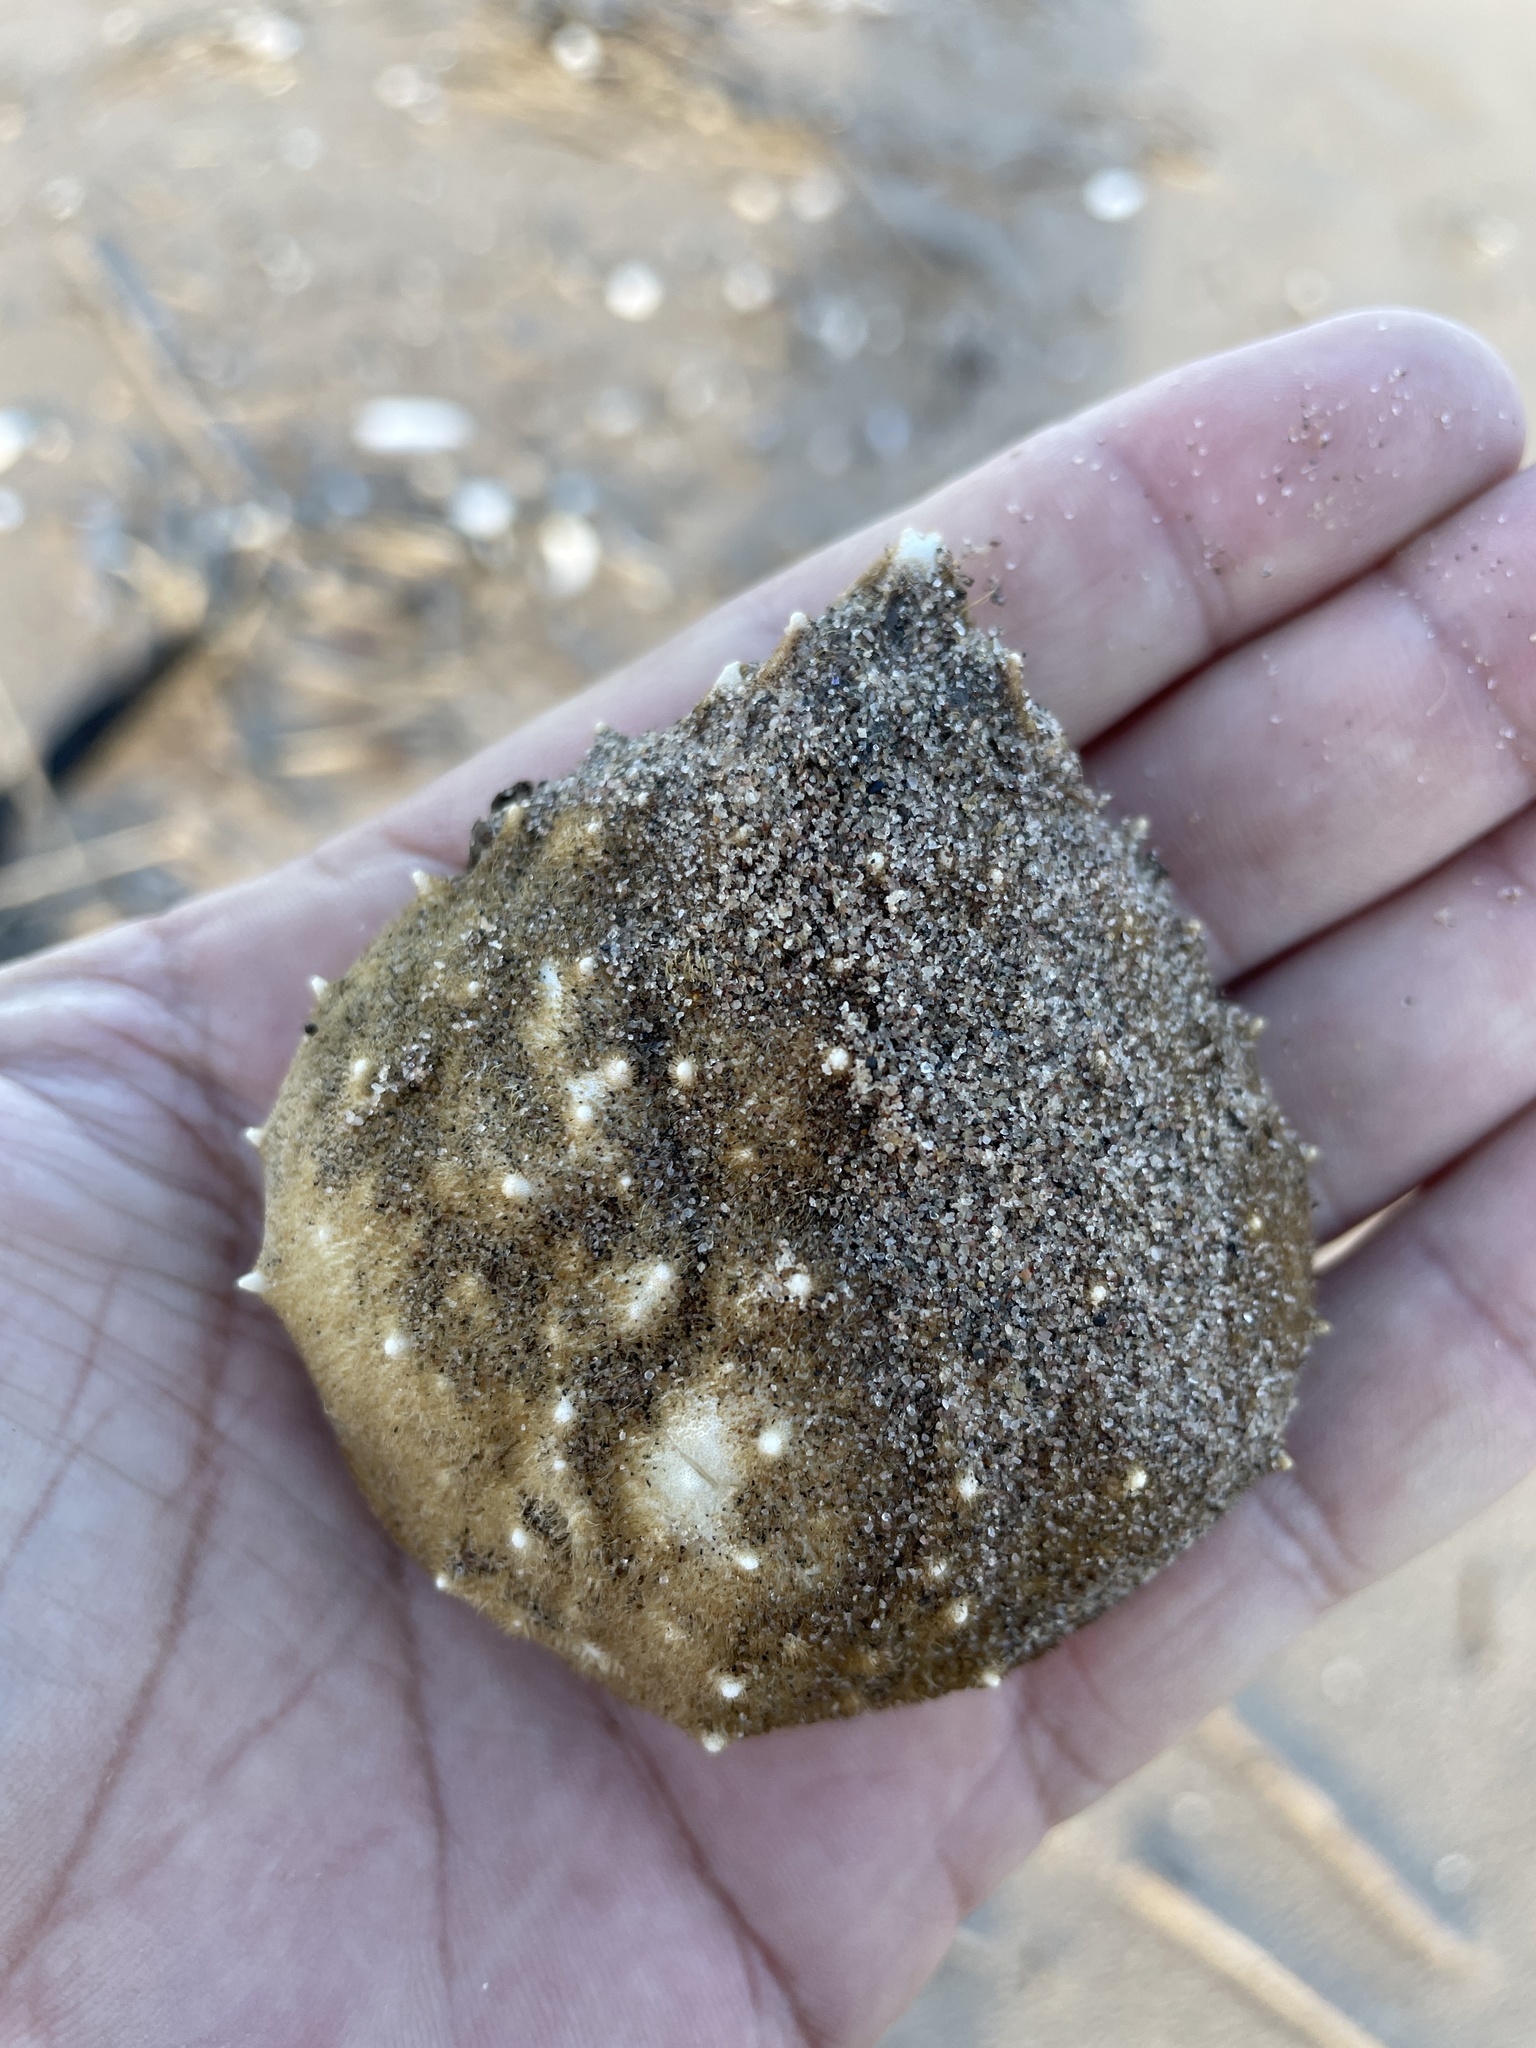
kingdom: Animalia
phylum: Arthropoda
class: Malacostraca
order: Decapoda
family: Epialtidae
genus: Libinia
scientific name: Libinia emarginata
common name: Common spider crab
